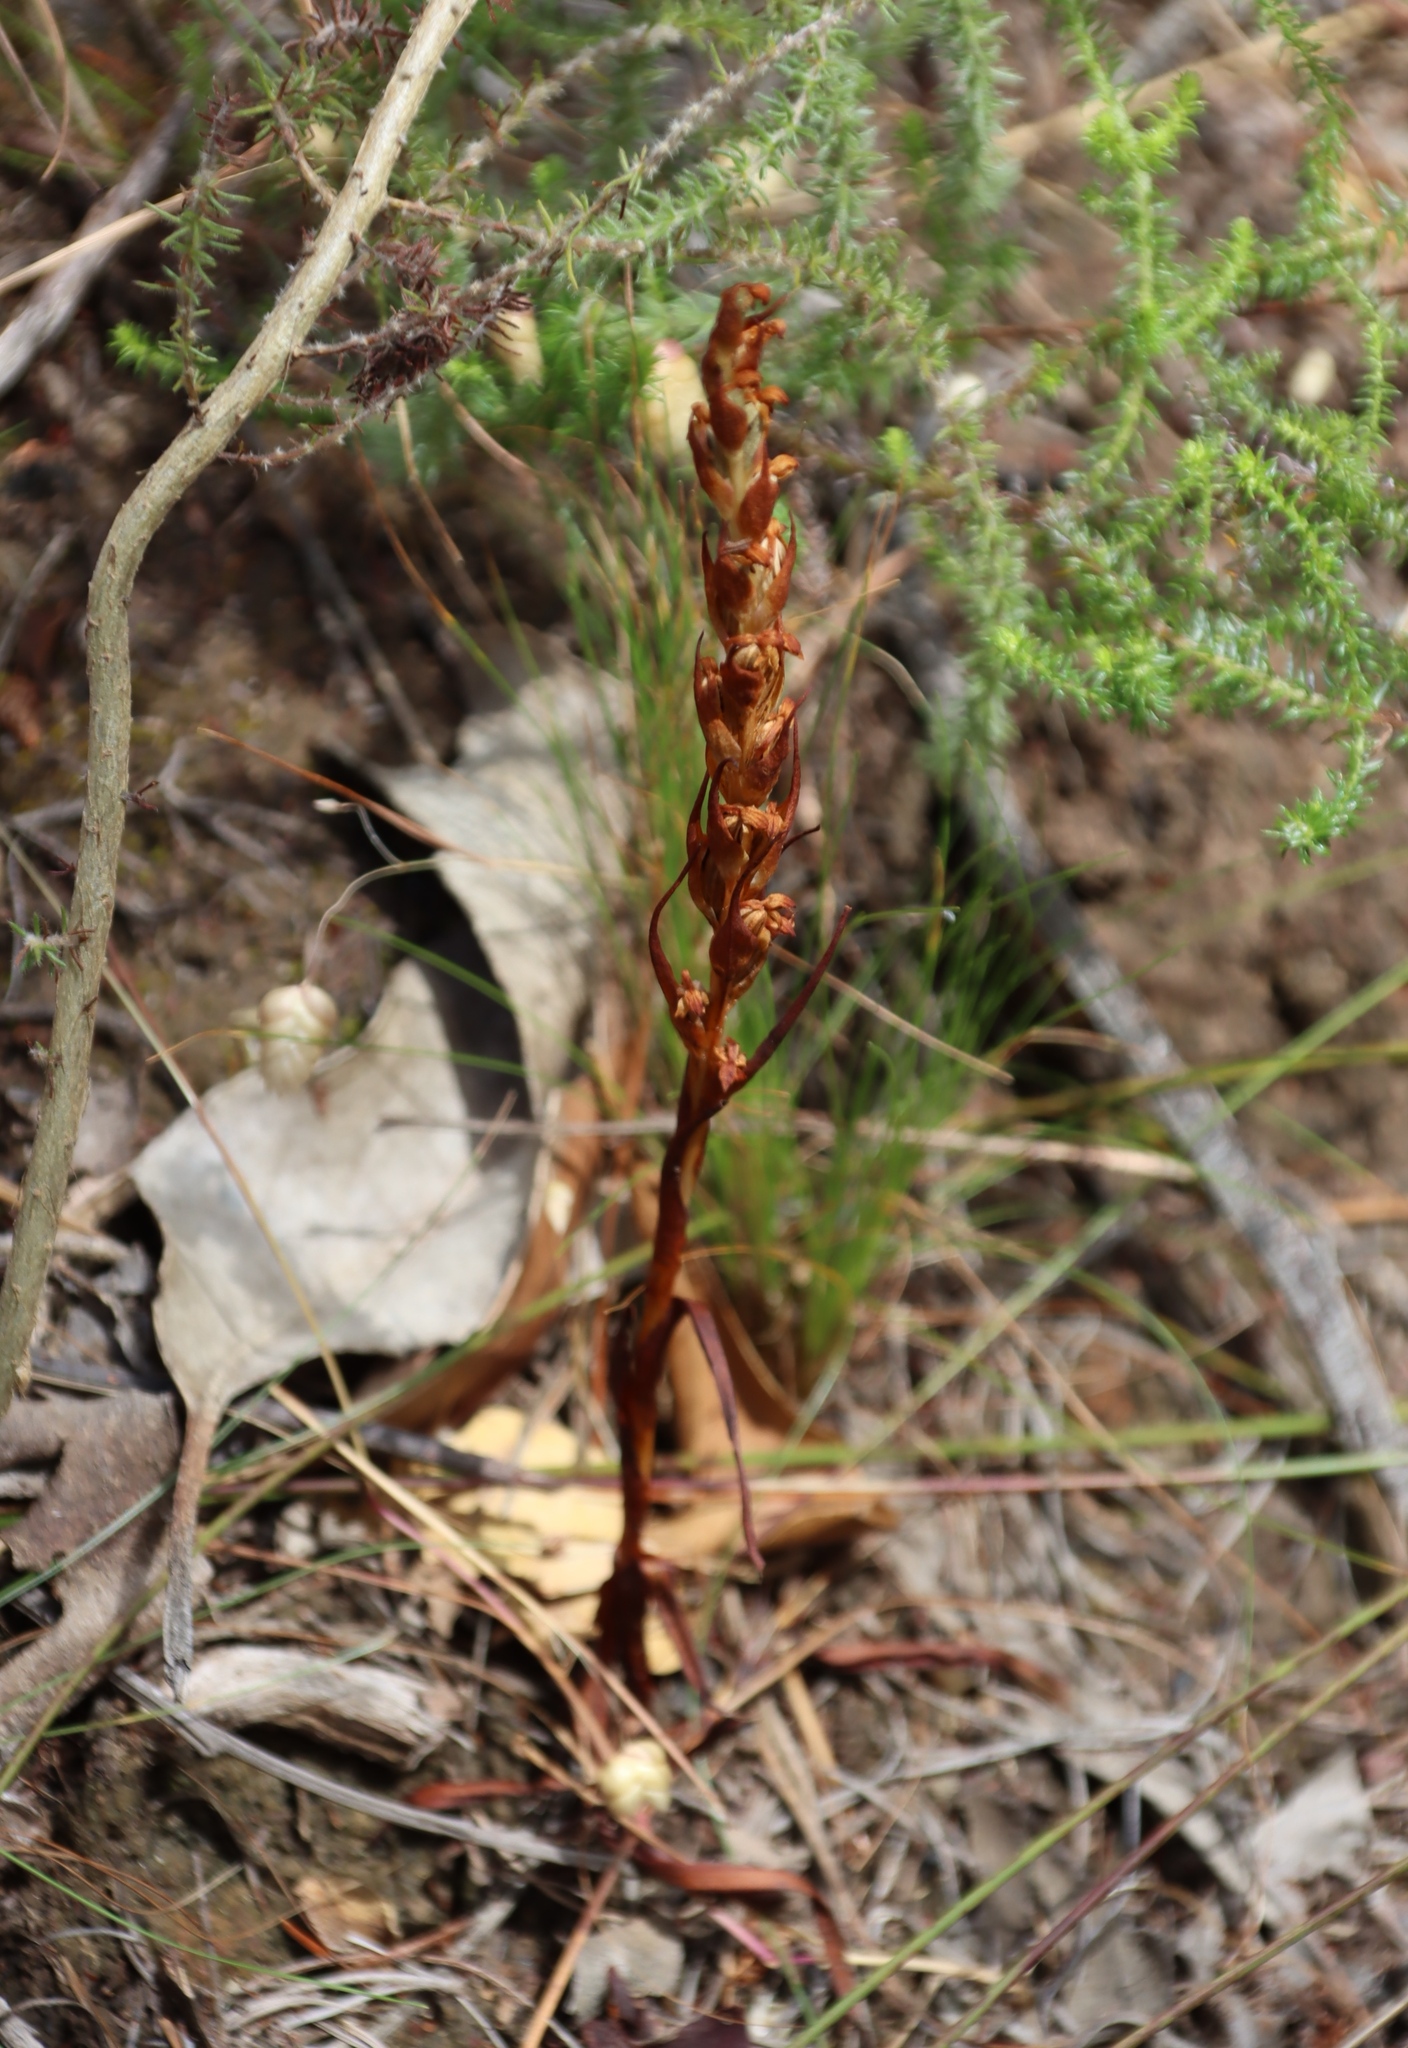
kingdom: Plantae
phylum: Tracheophyta
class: Liliopsida
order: Asparagales
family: Orchidaceae
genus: Disa
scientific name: Disa bracteata
